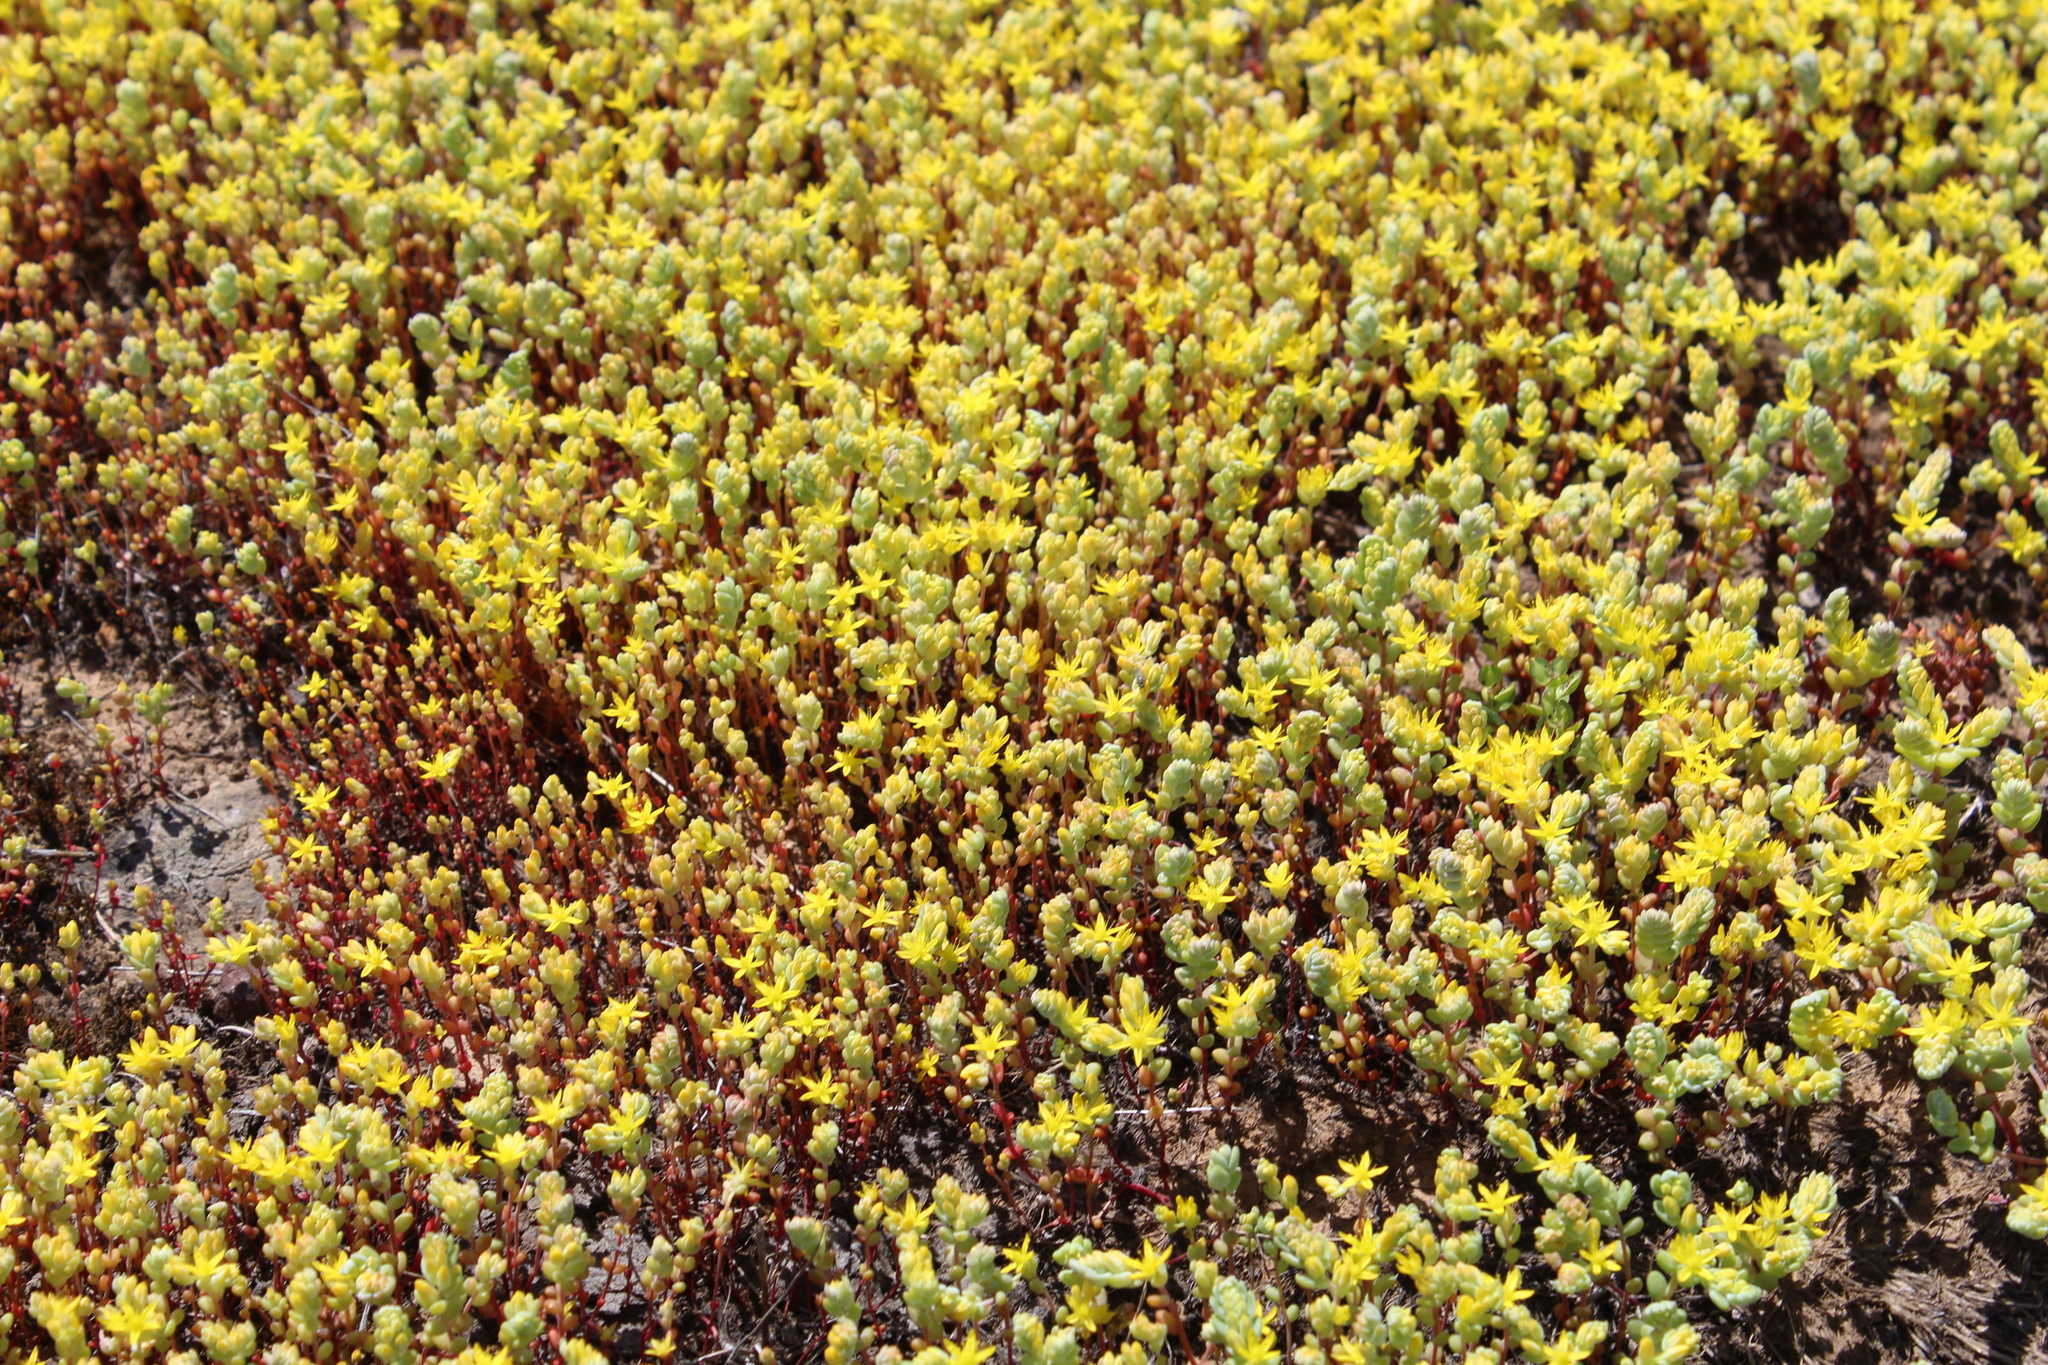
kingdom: Plantae
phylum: Tracheophyta
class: Magnoliopsida
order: Saxifragales
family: Crassulaceae
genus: Sedella
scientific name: Sedella pumila
